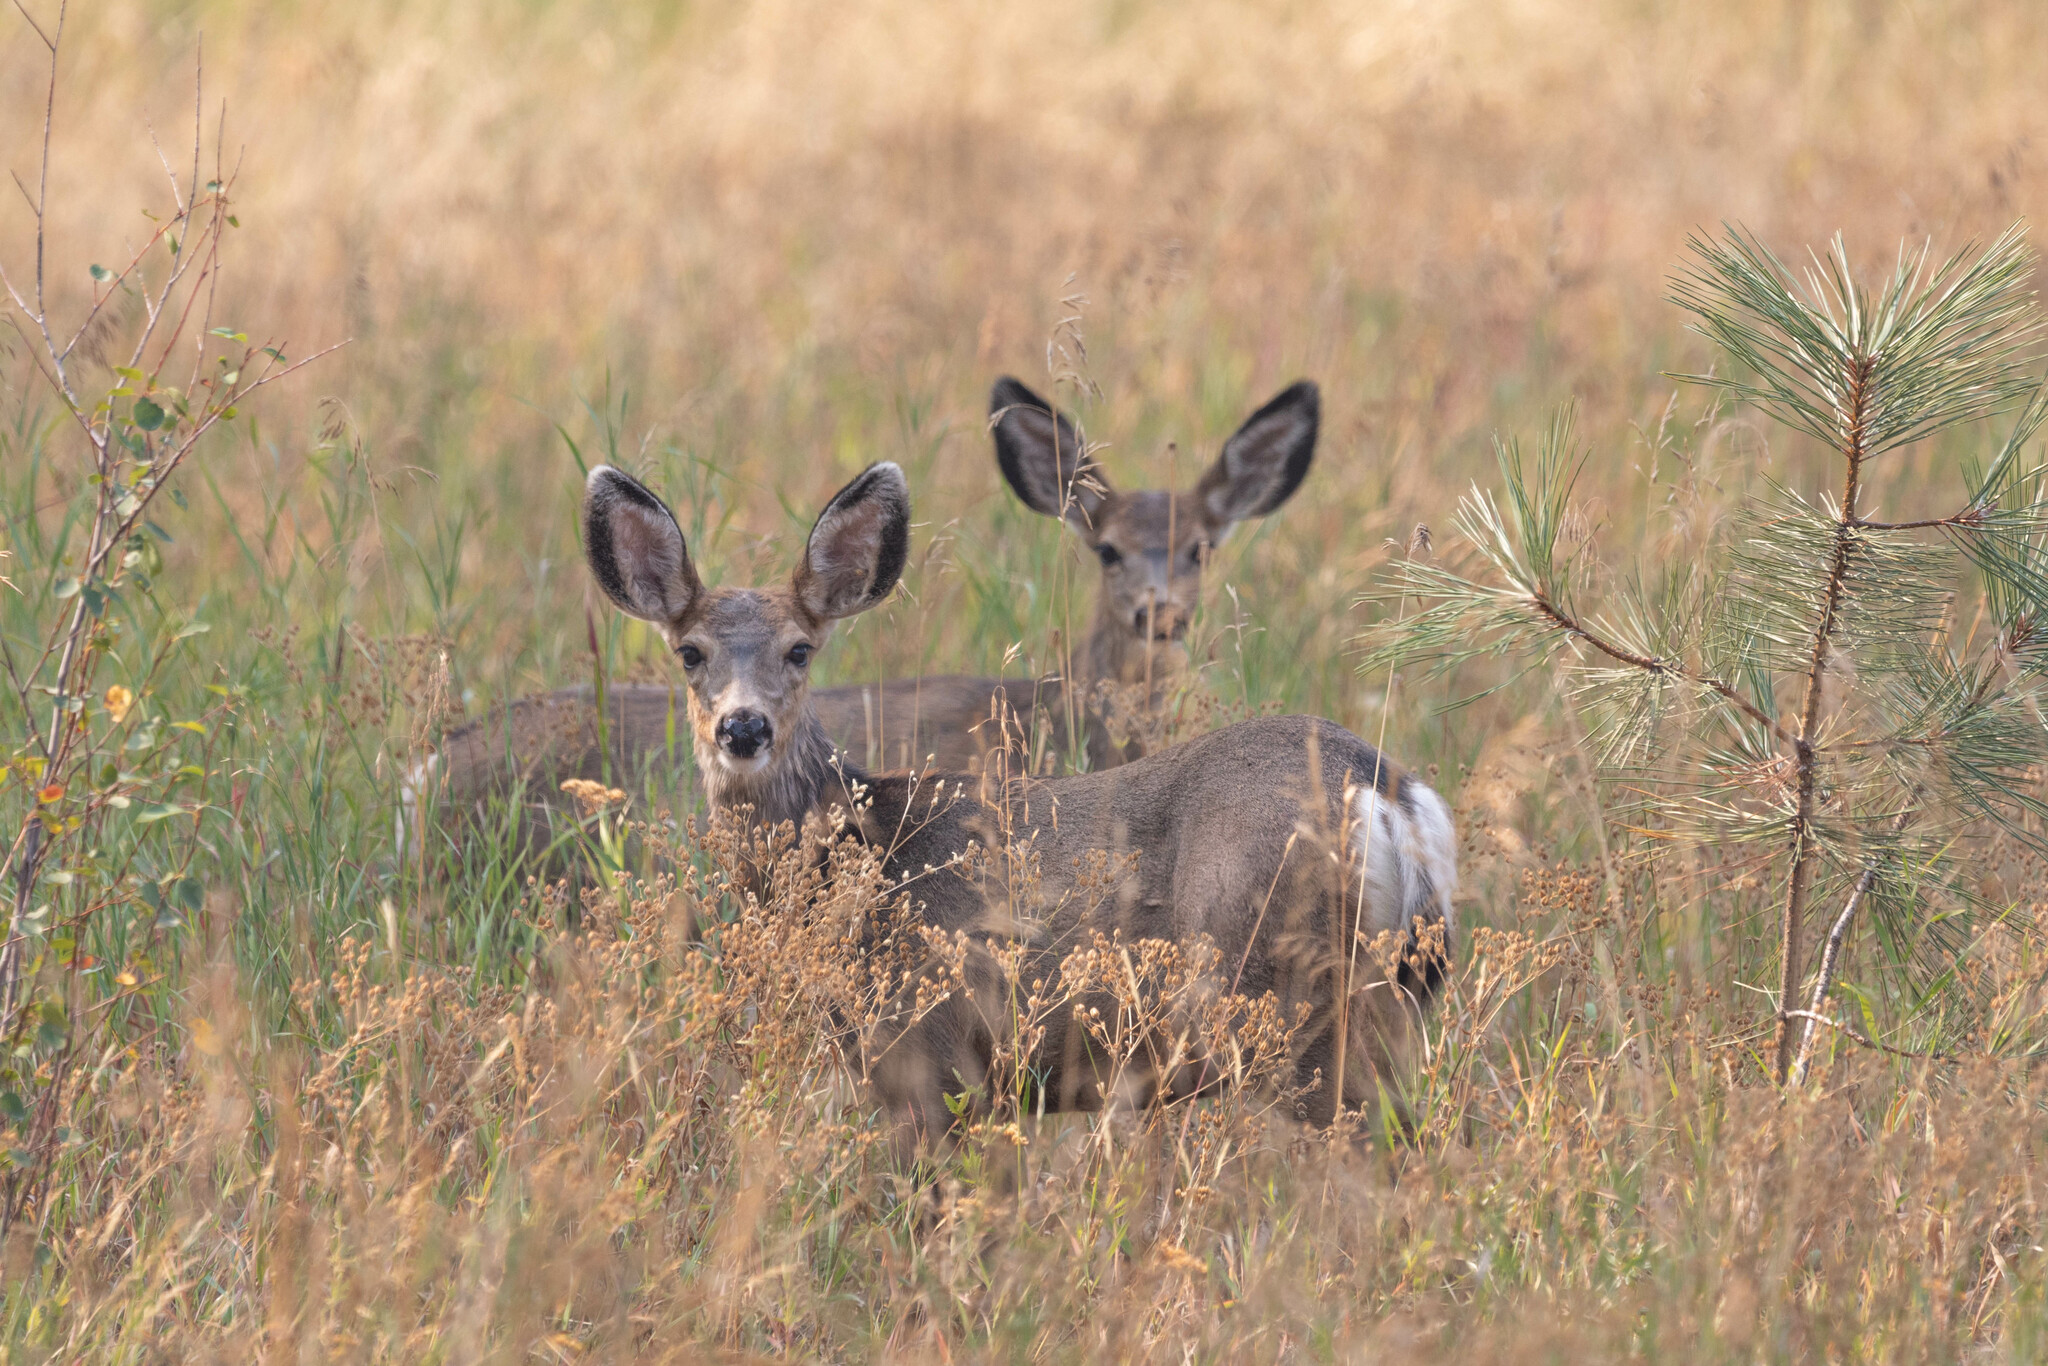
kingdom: Animalia
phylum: Chordata
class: Mammalia
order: Artiodactyla
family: Cervidae
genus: Odocoileus
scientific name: Odocoileus hemionus
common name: Mule deer
